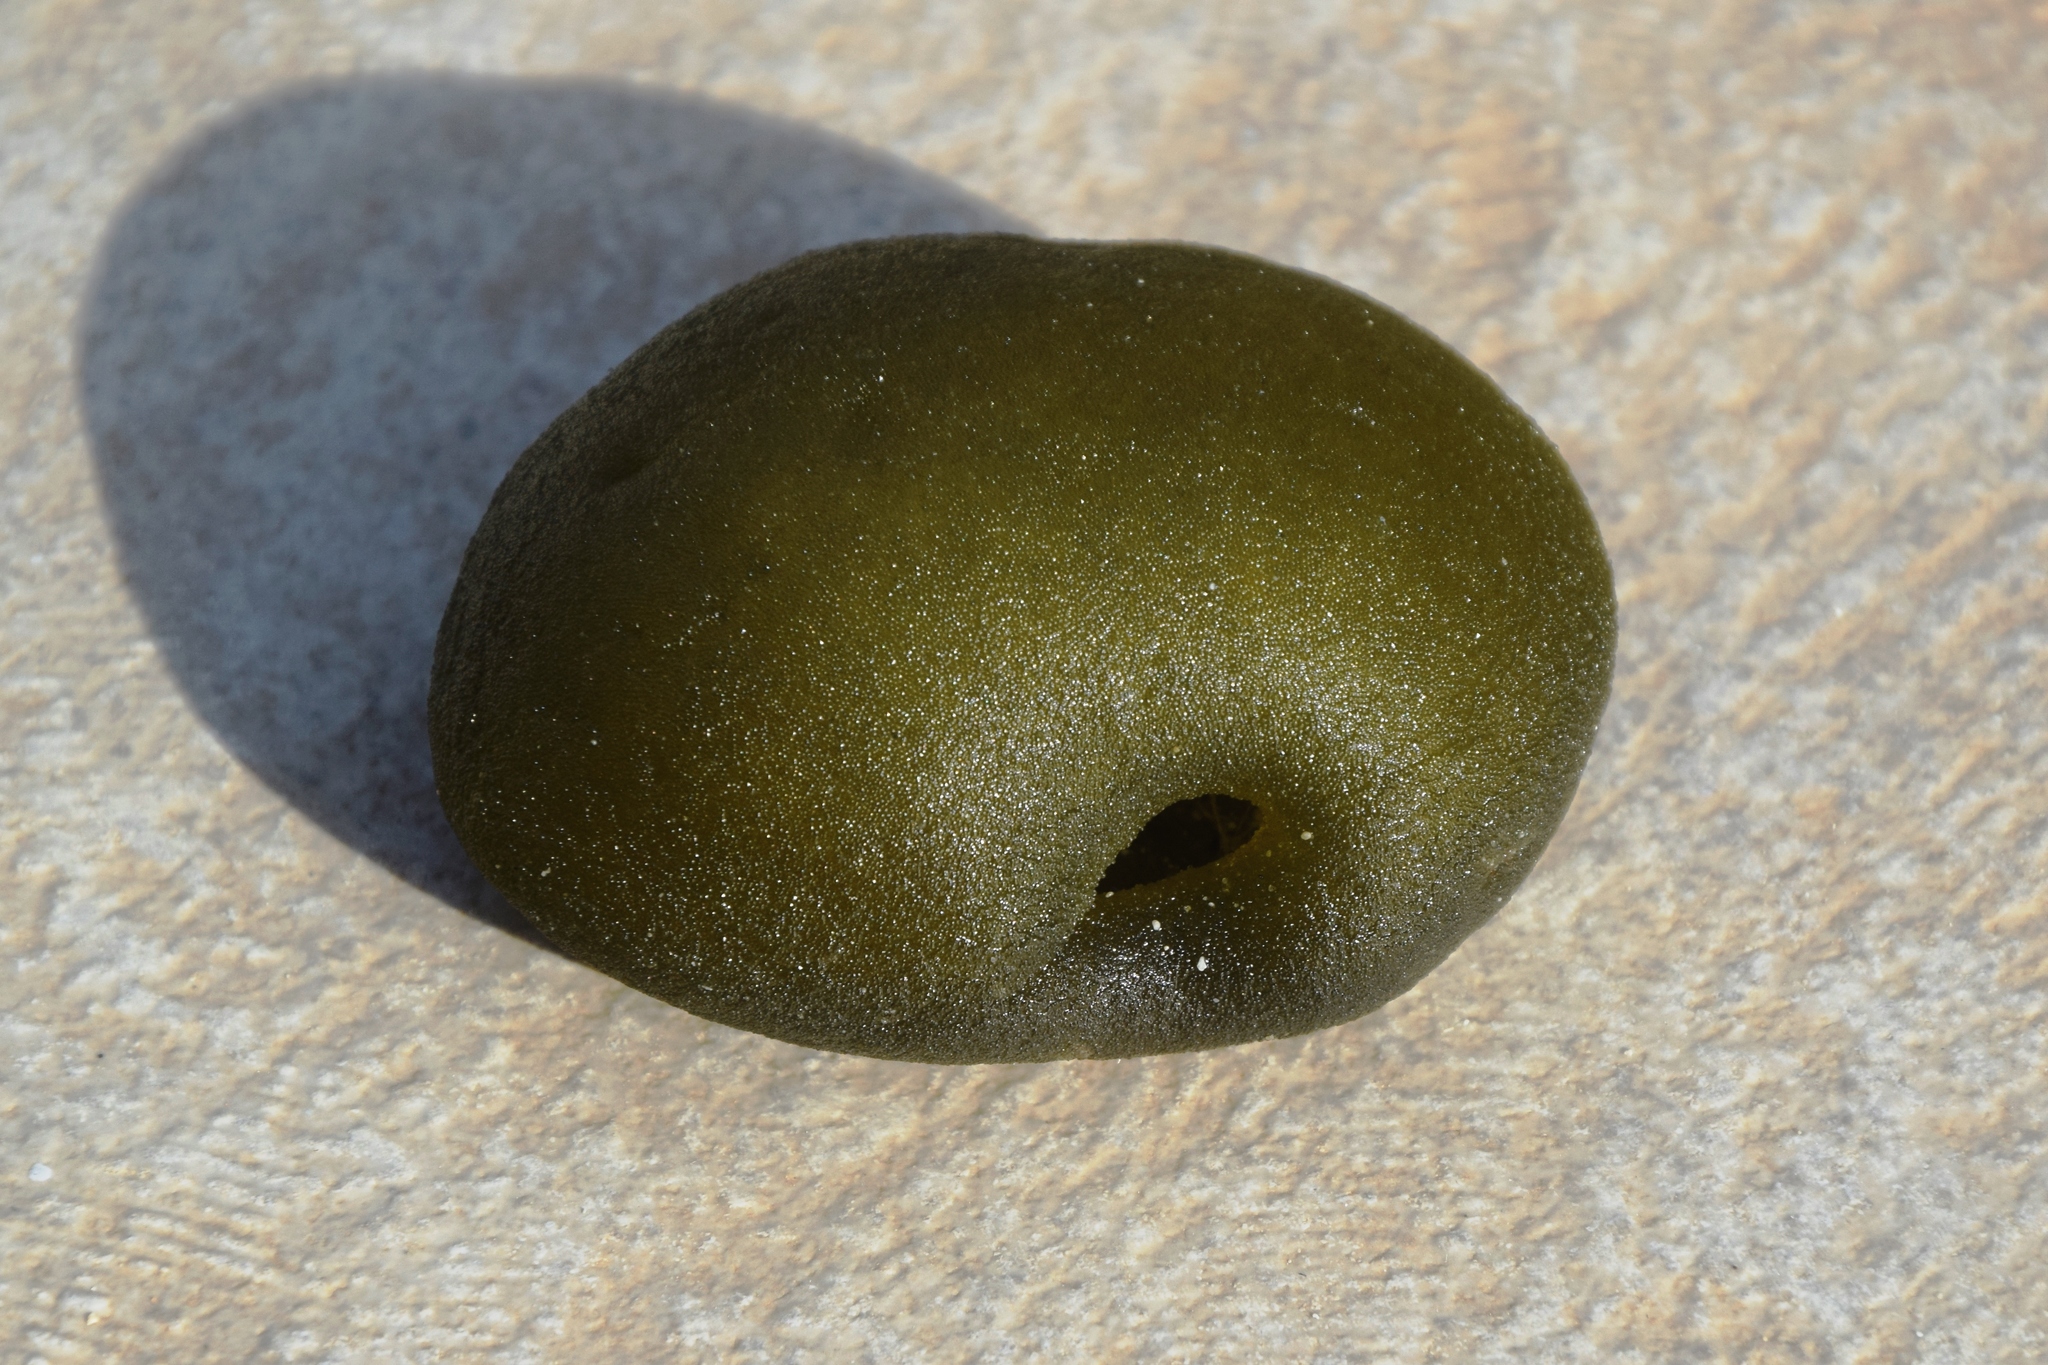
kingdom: Plantae
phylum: Chlorophyta
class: Ulvophyceae
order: Bryopsidales
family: Codiaceae
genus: Codium
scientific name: Codium bursa
